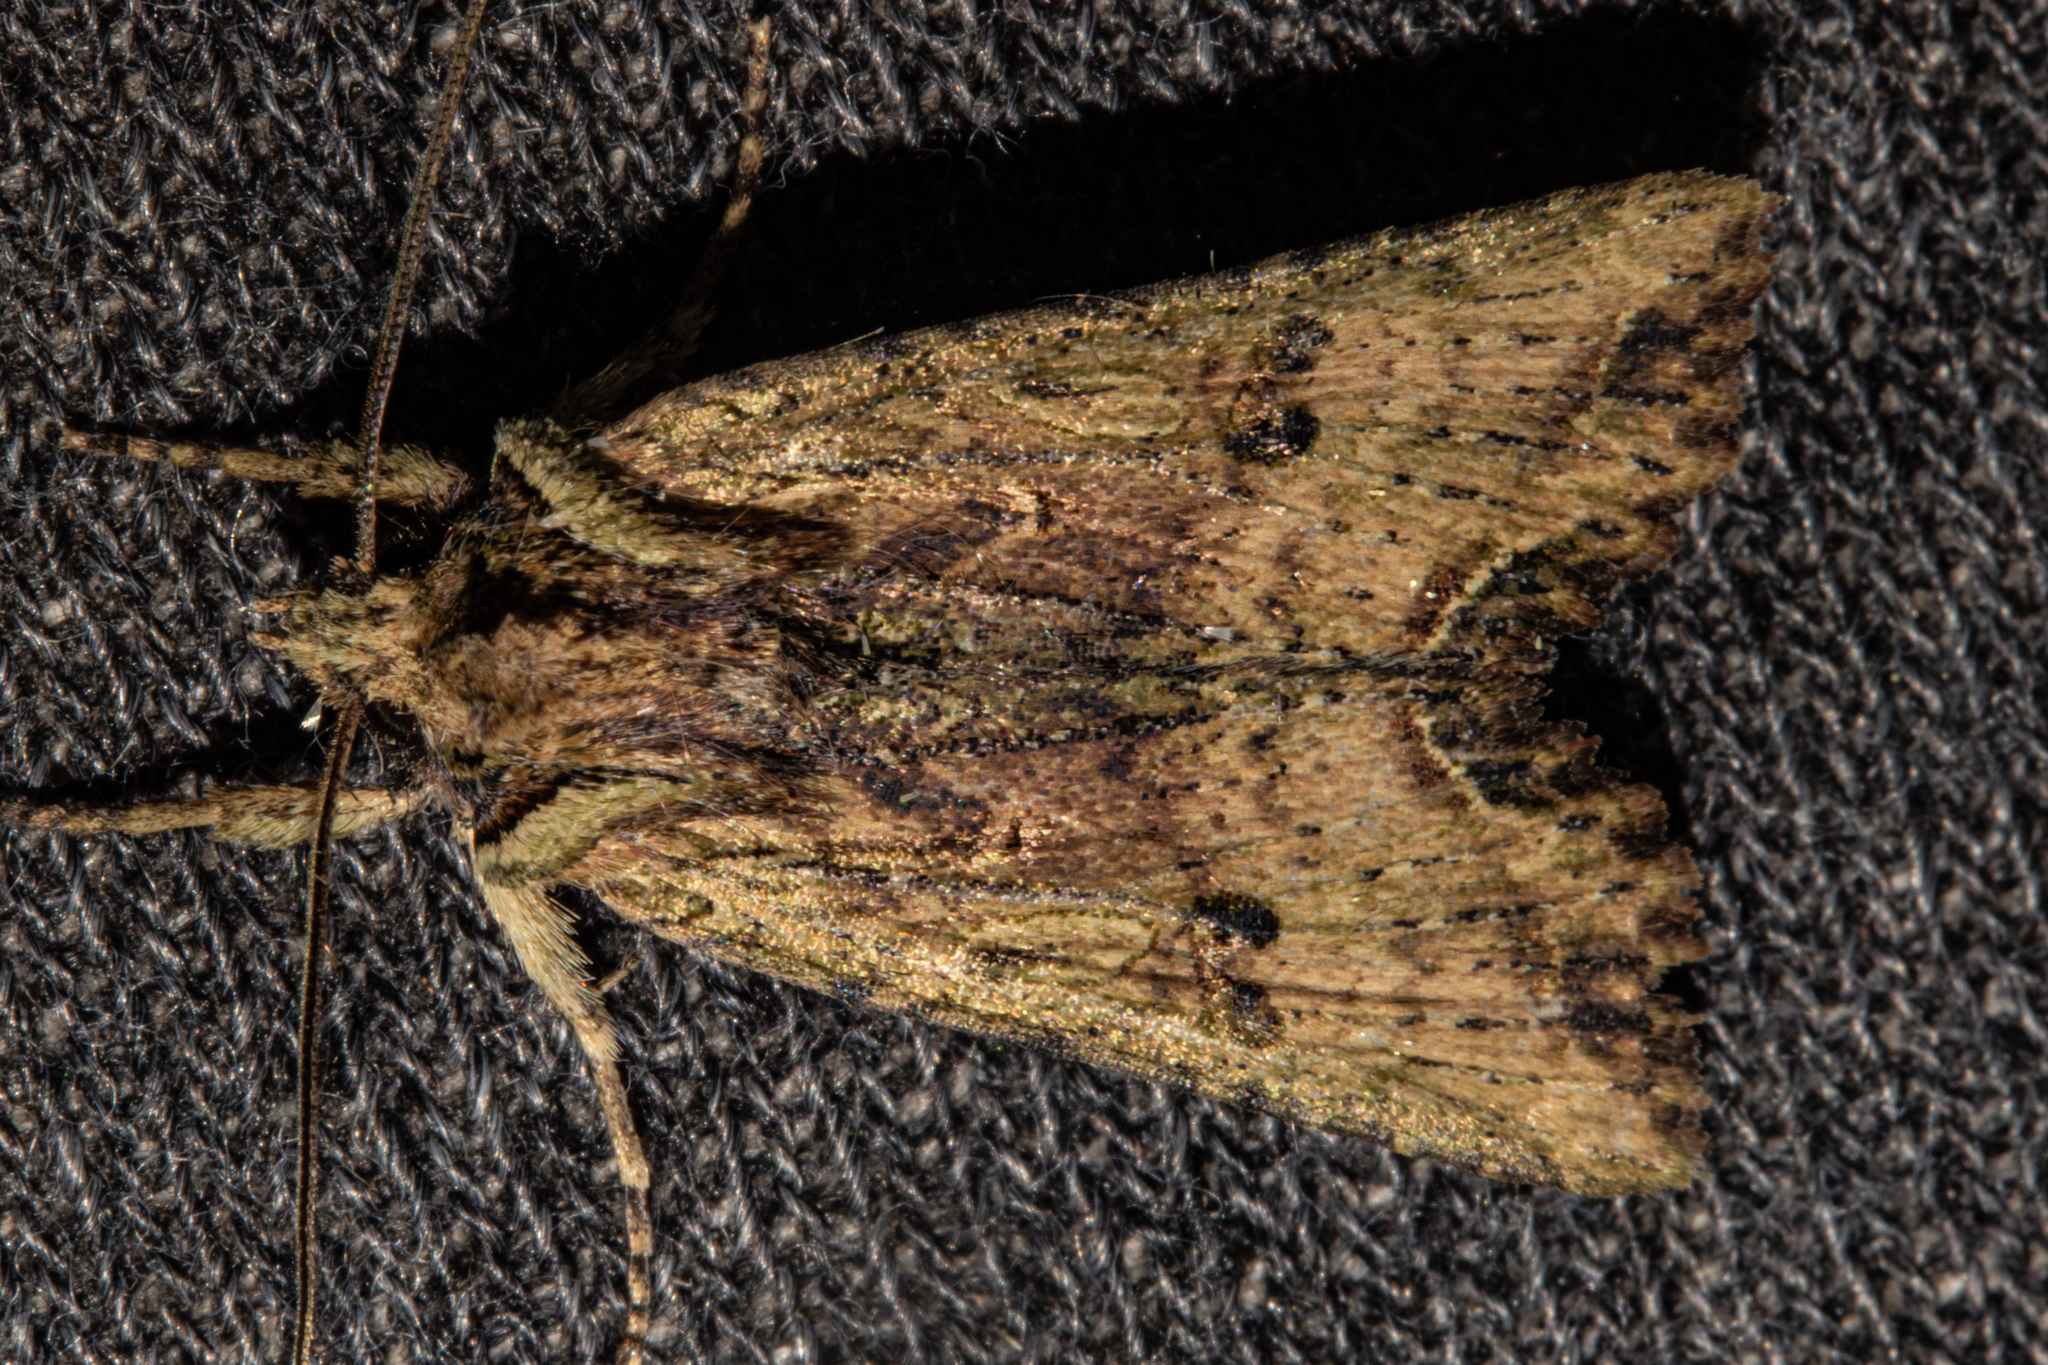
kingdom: Animalia
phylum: Arthropoda
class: Insecta
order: Lepidoptera
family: Noctuidae
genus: Meterana
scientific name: Meterana coeleno
